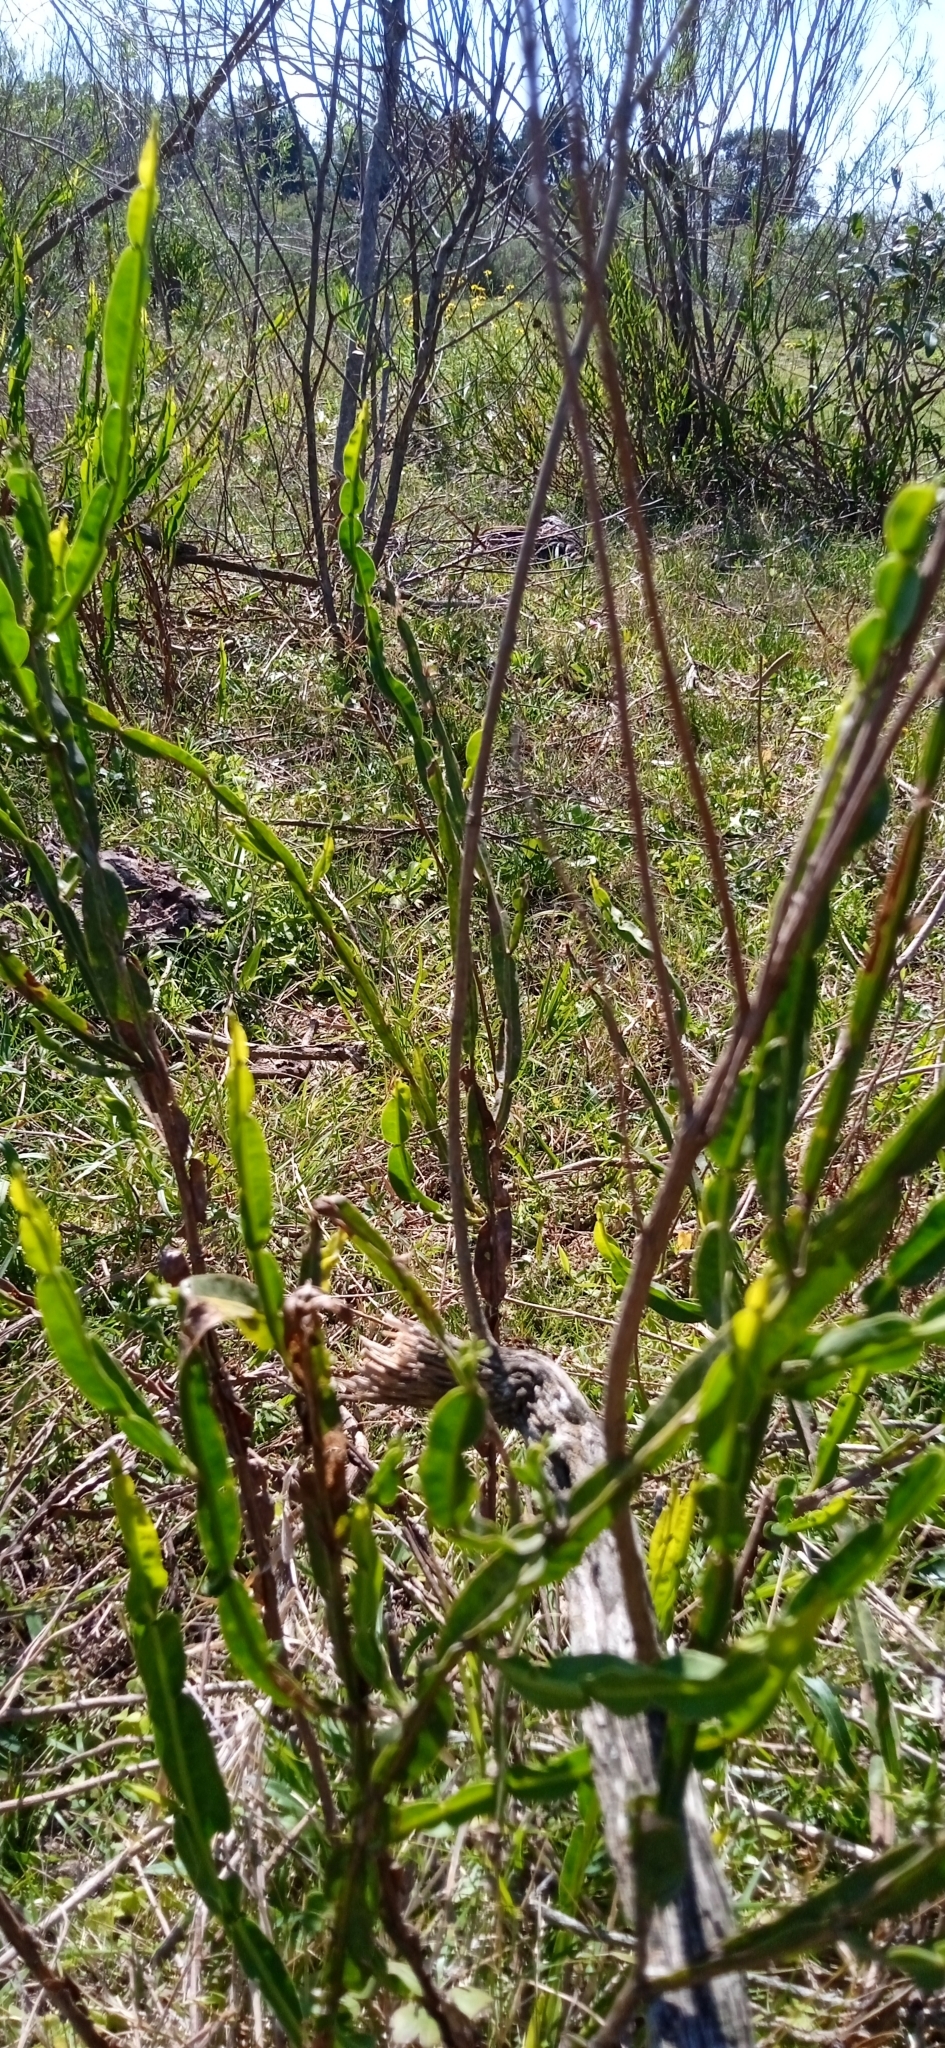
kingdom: Plantae
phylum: Tracheophyta
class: Magnoliopsida
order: Asterales
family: Asteraceae
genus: Baccharis
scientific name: Baccharis trimera
